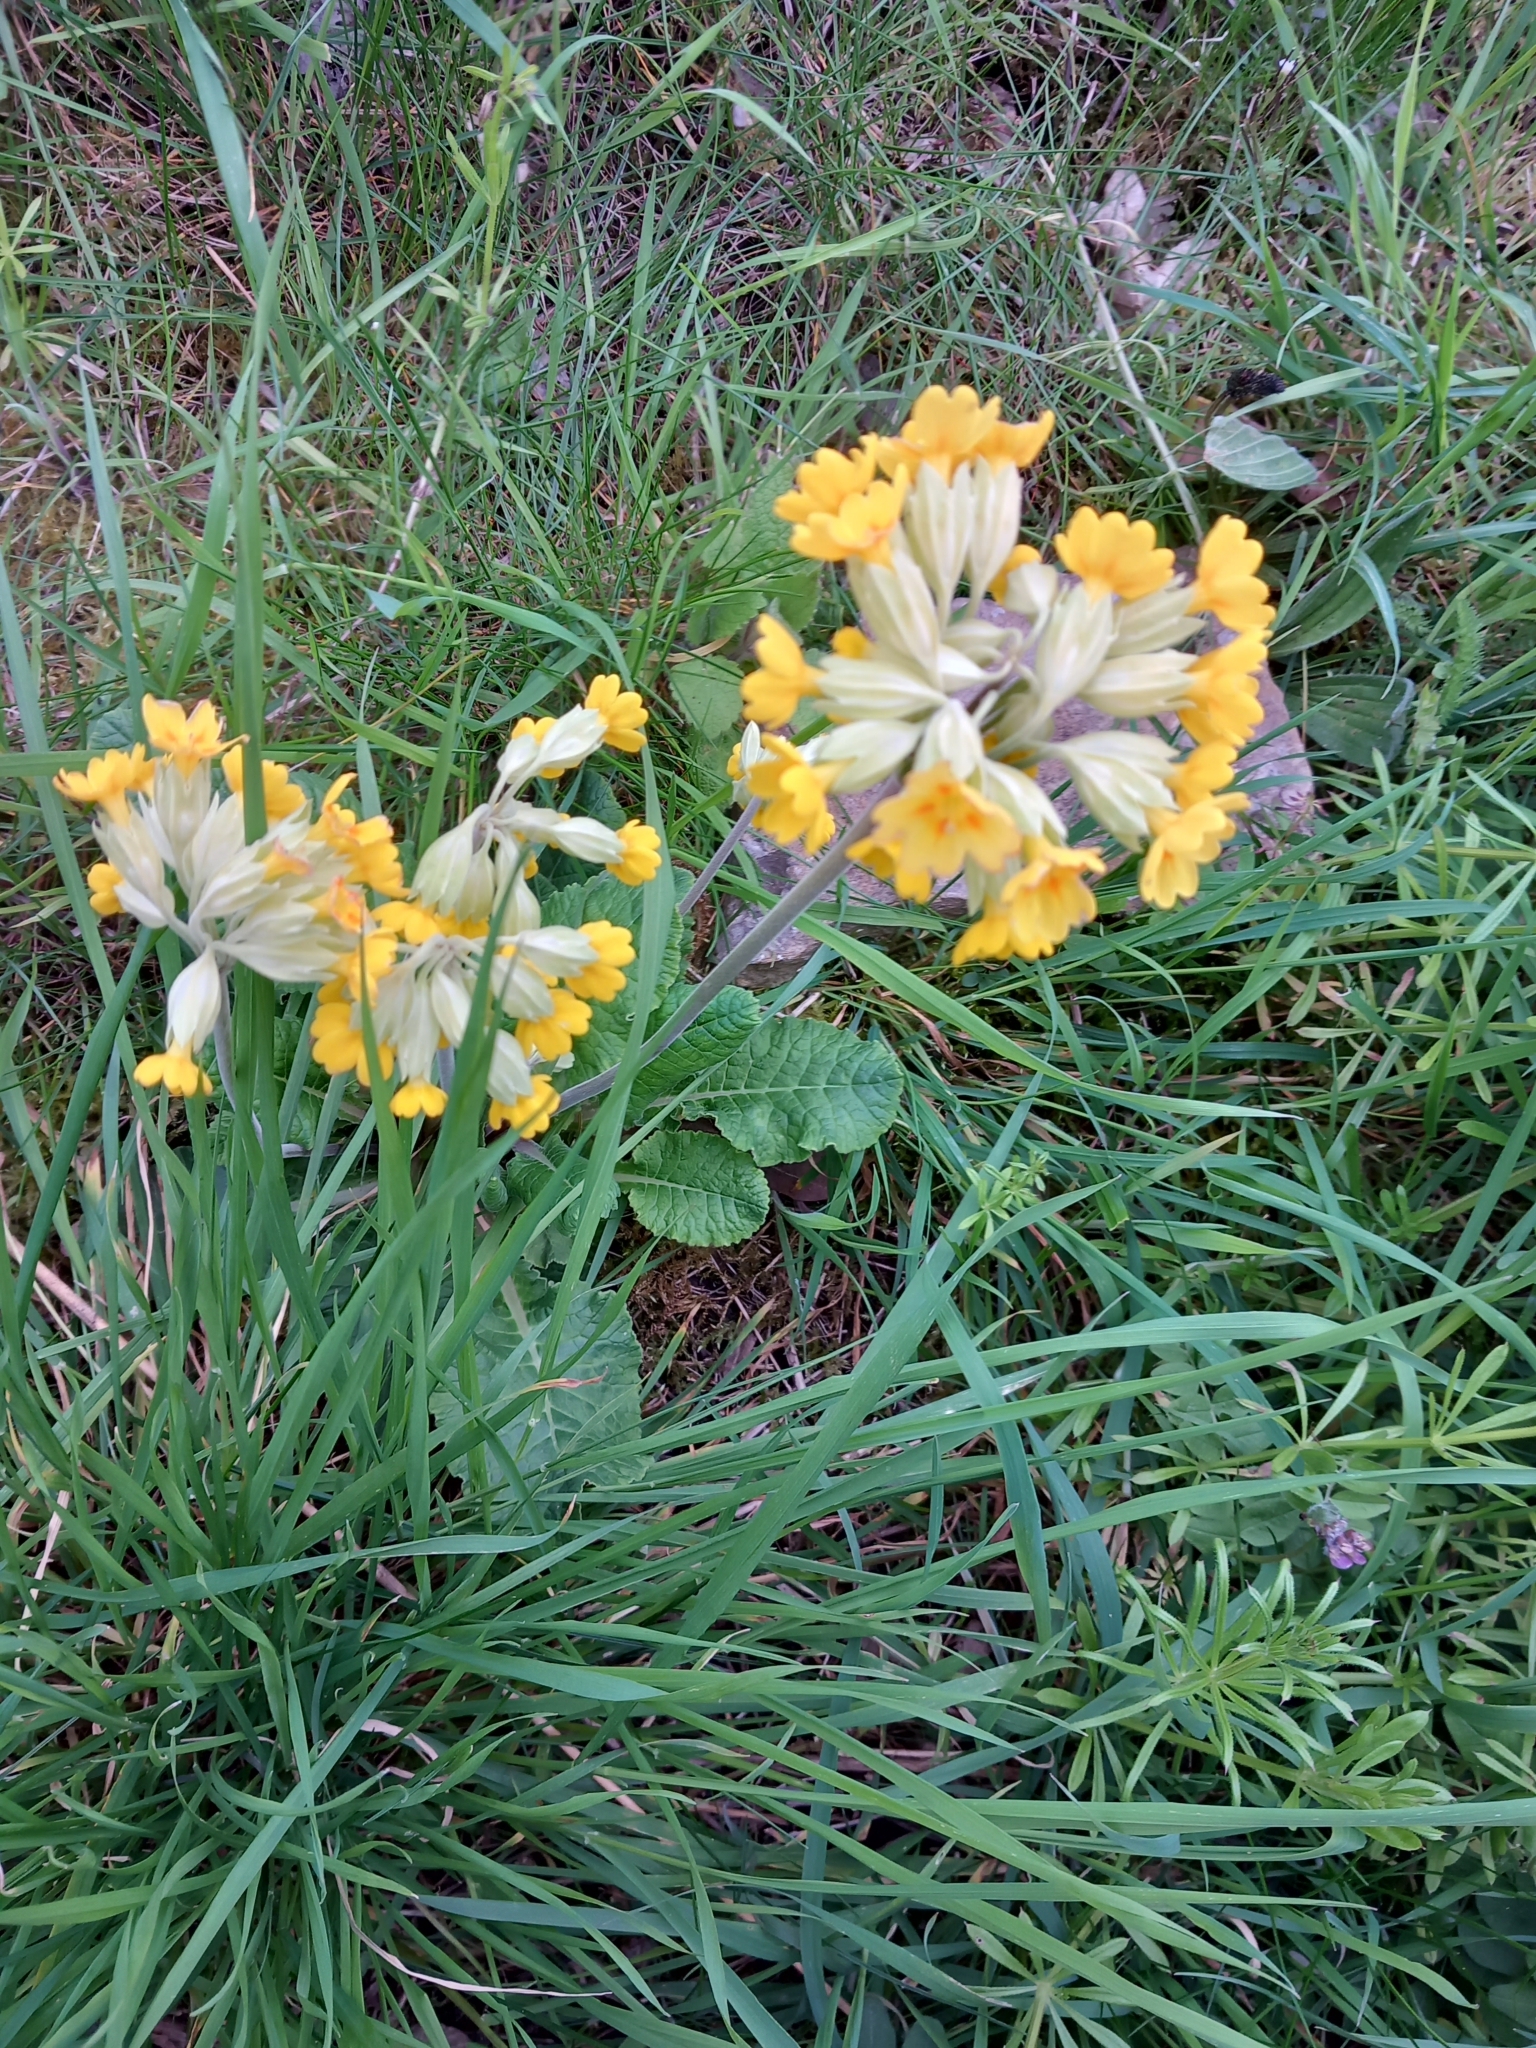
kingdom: Plantae
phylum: Tracheophyta
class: Magnoliopsida
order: Ericales
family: Primulaceae
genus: Primula
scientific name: Primula veris
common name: Cowslip
